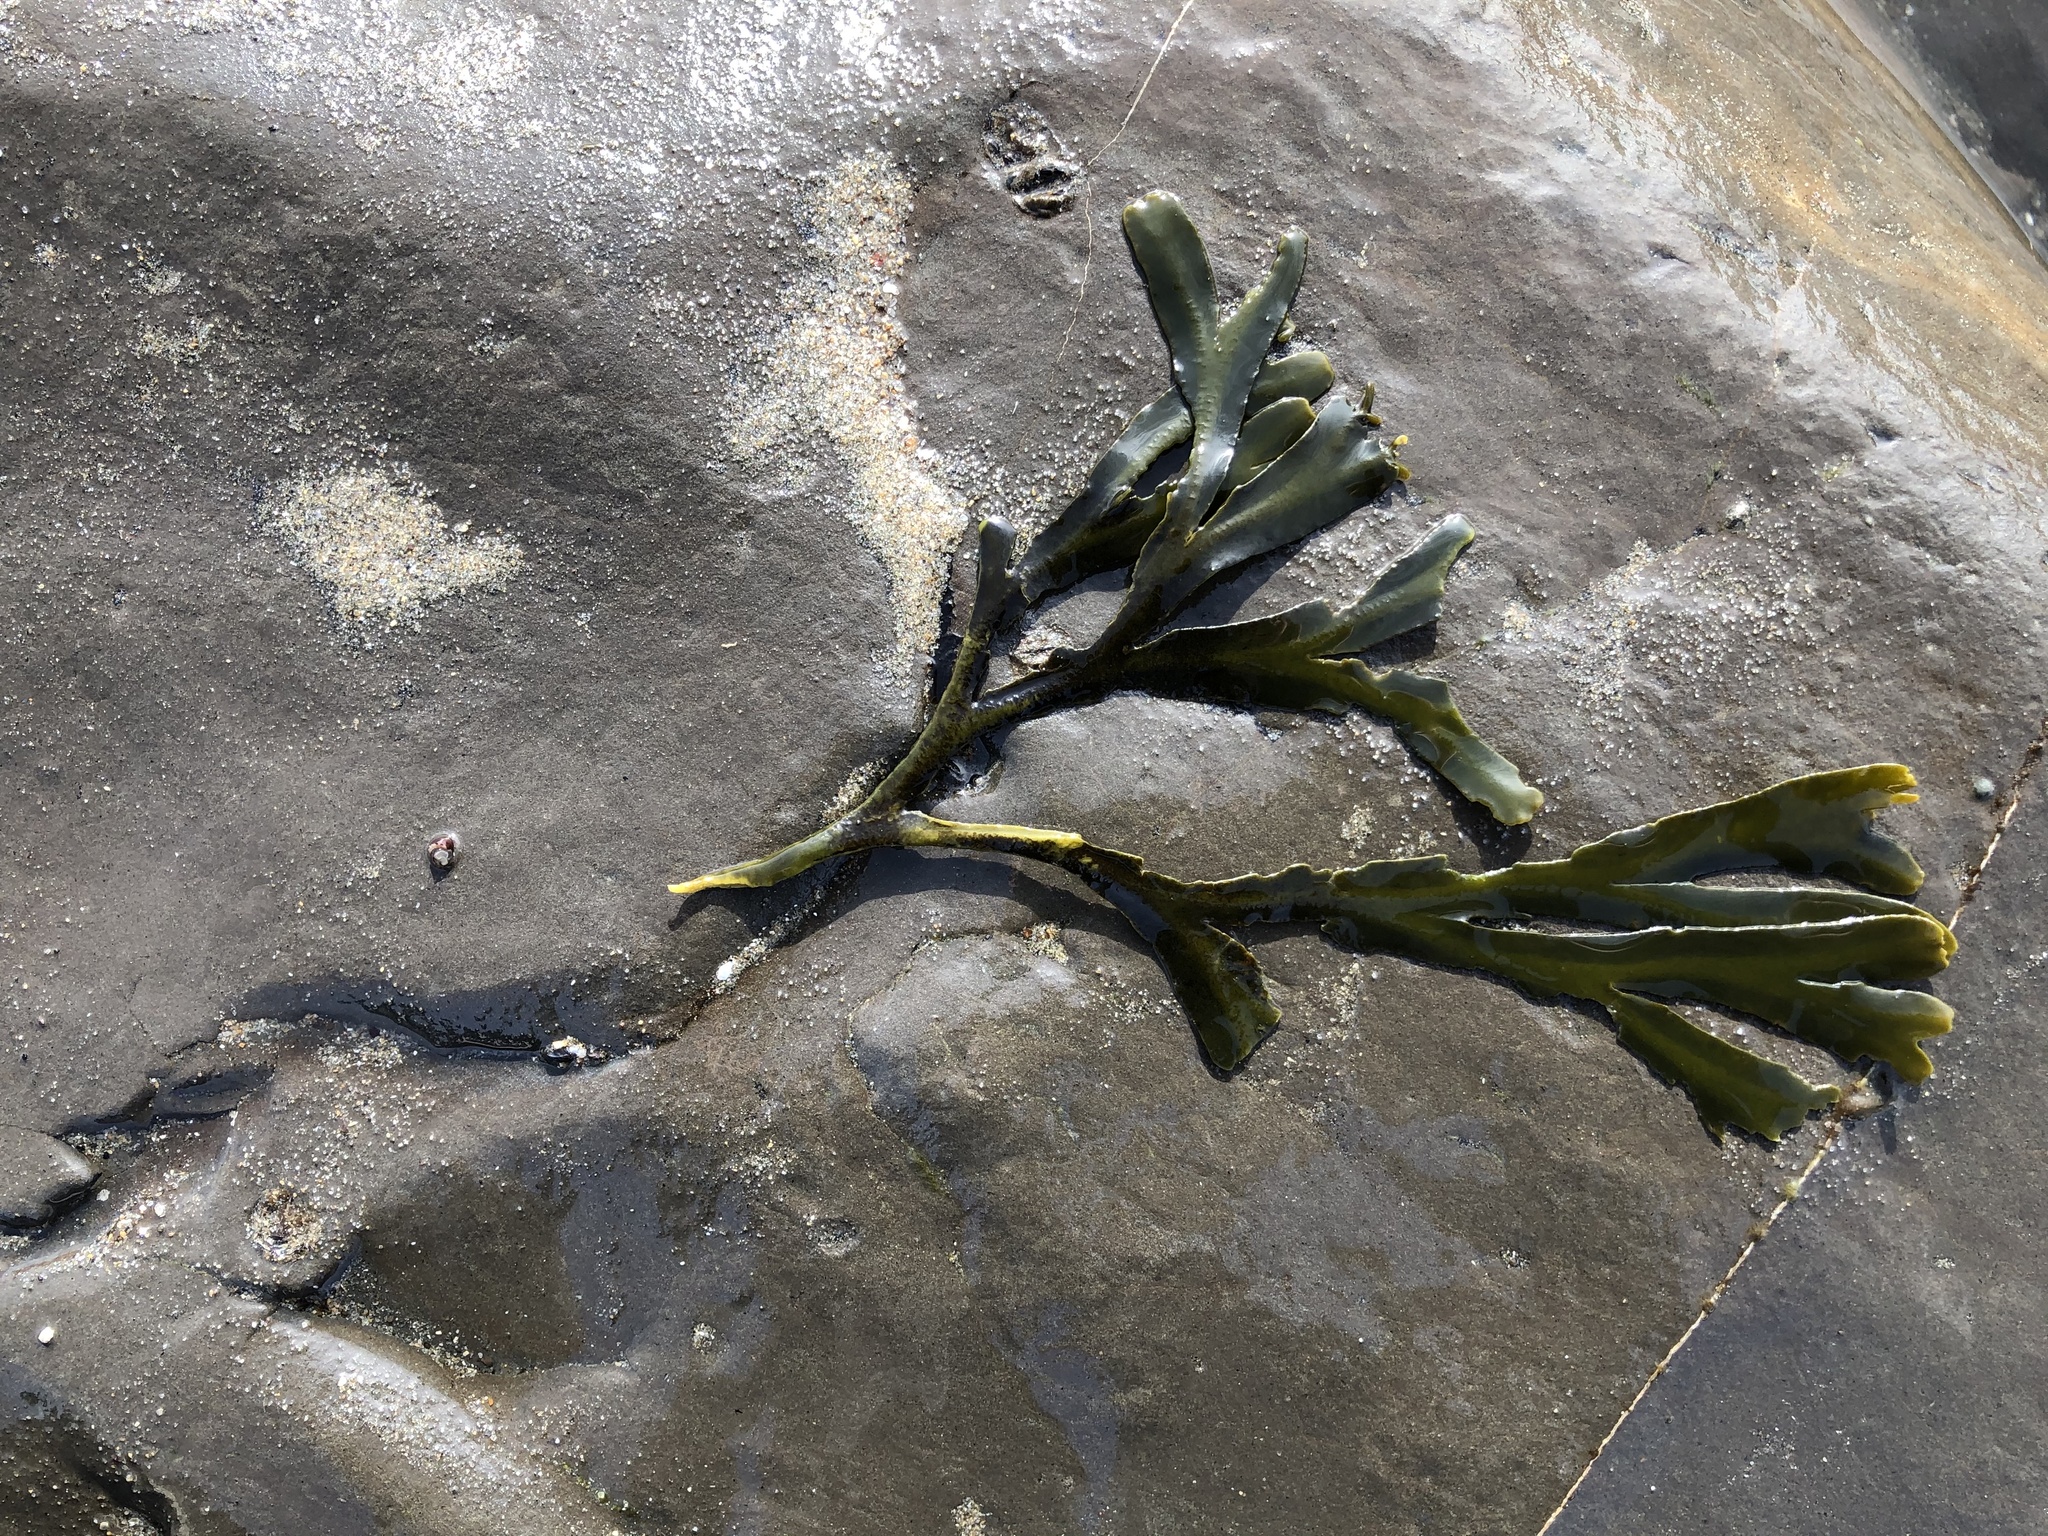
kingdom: Chromista
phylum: Ochrophyta
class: Phaeophyceae
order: Fucales
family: Fucaceae
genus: Fucus
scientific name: Fucus distichus
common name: Rockweed
